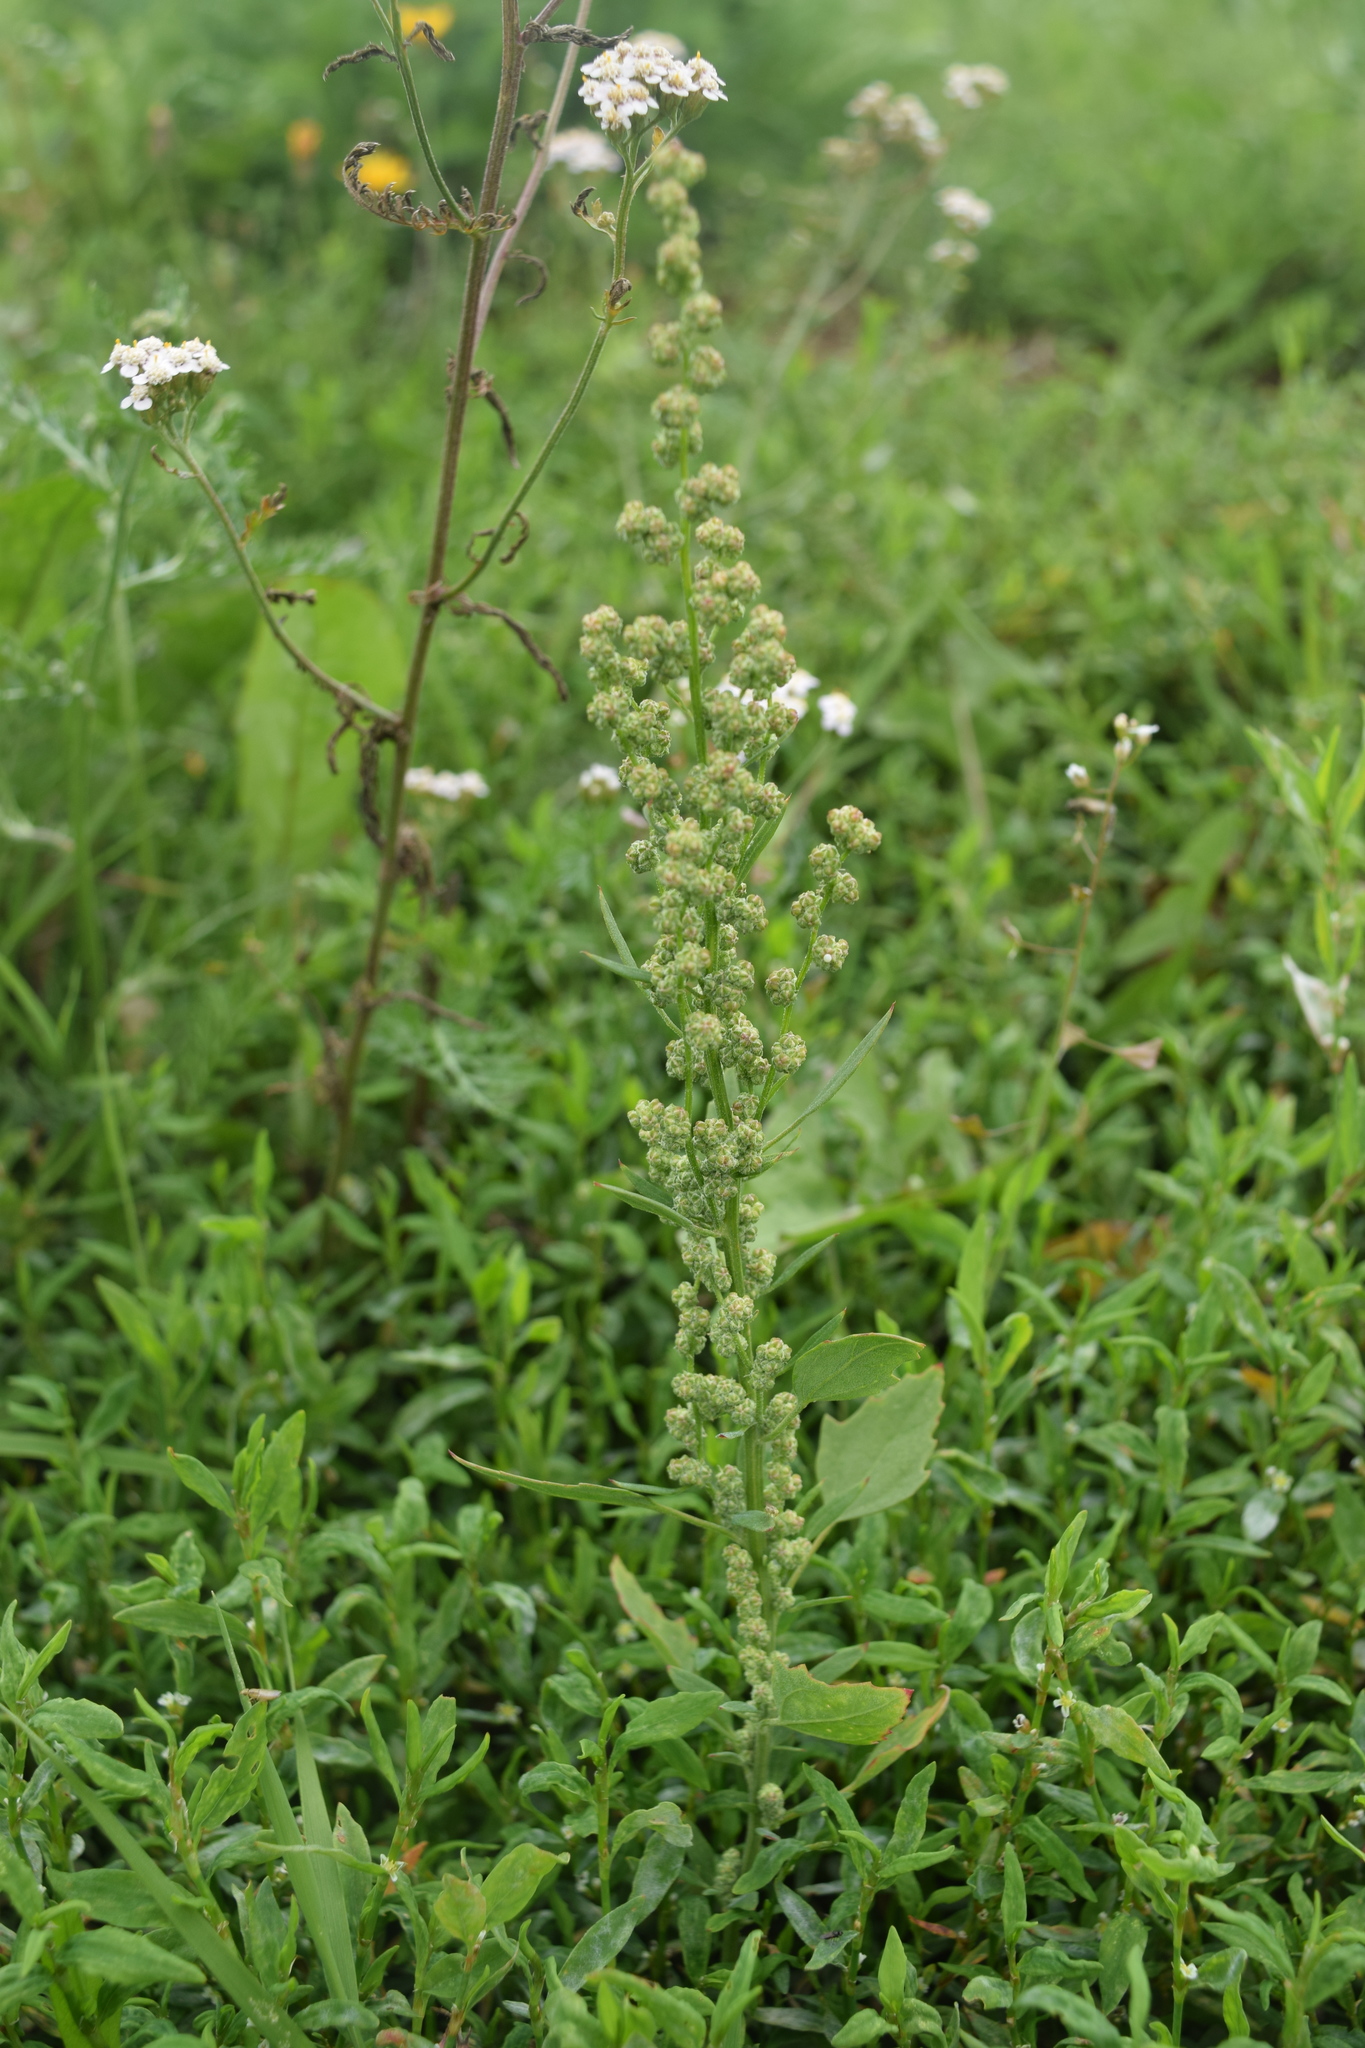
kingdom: Plantae
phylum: Tracheophyta
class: Magnoliopsida
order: Caryophyllales
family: Amaranthaceae
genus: Chenopodium
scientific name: Chenopodium album
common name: Fat-hen
